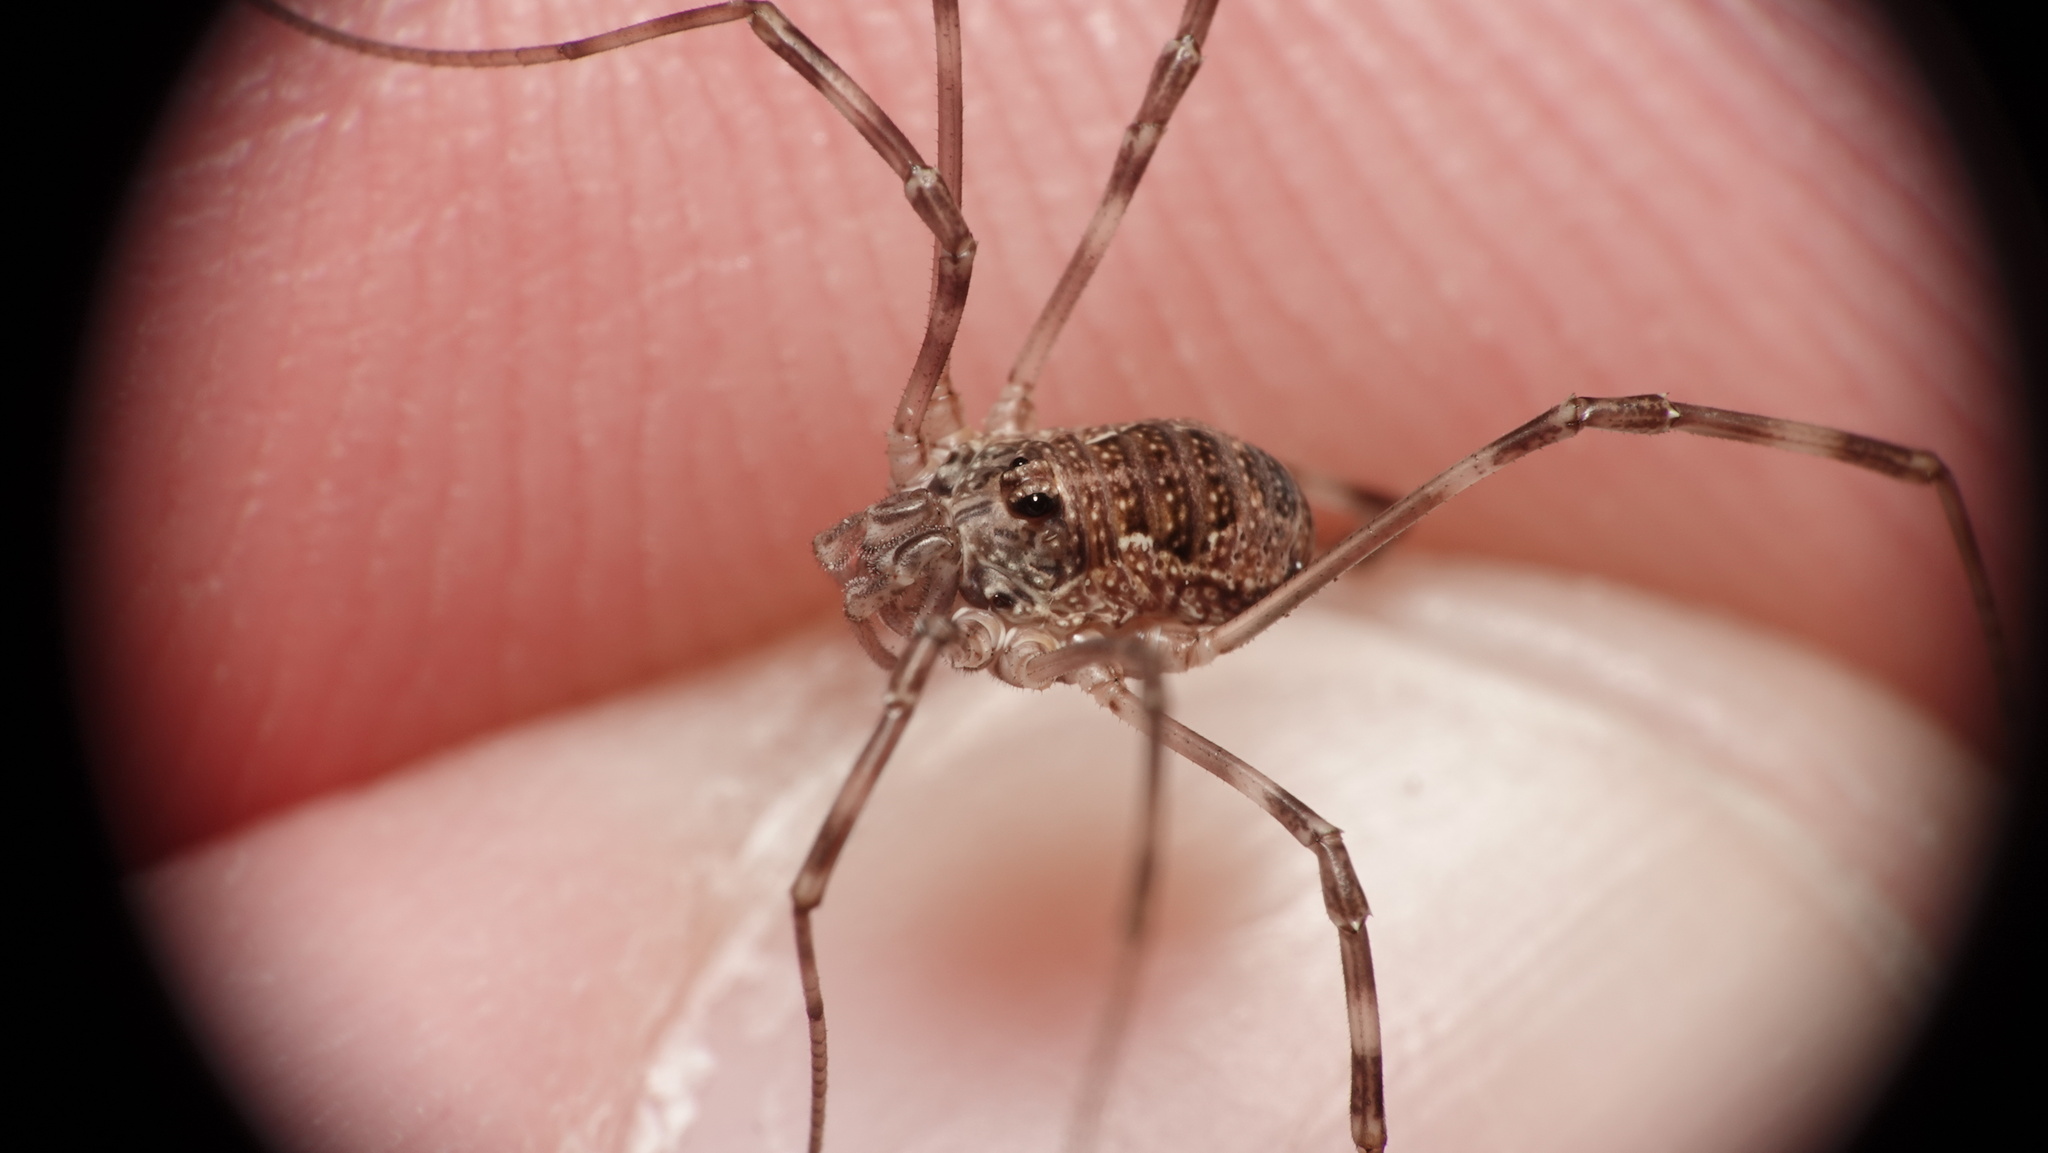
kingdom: Animalia
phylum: Arthropoda
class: Arachnida
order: Opiliones
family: Phalangiidae
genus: Dasylobus
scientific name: Dasylobus graniferus
